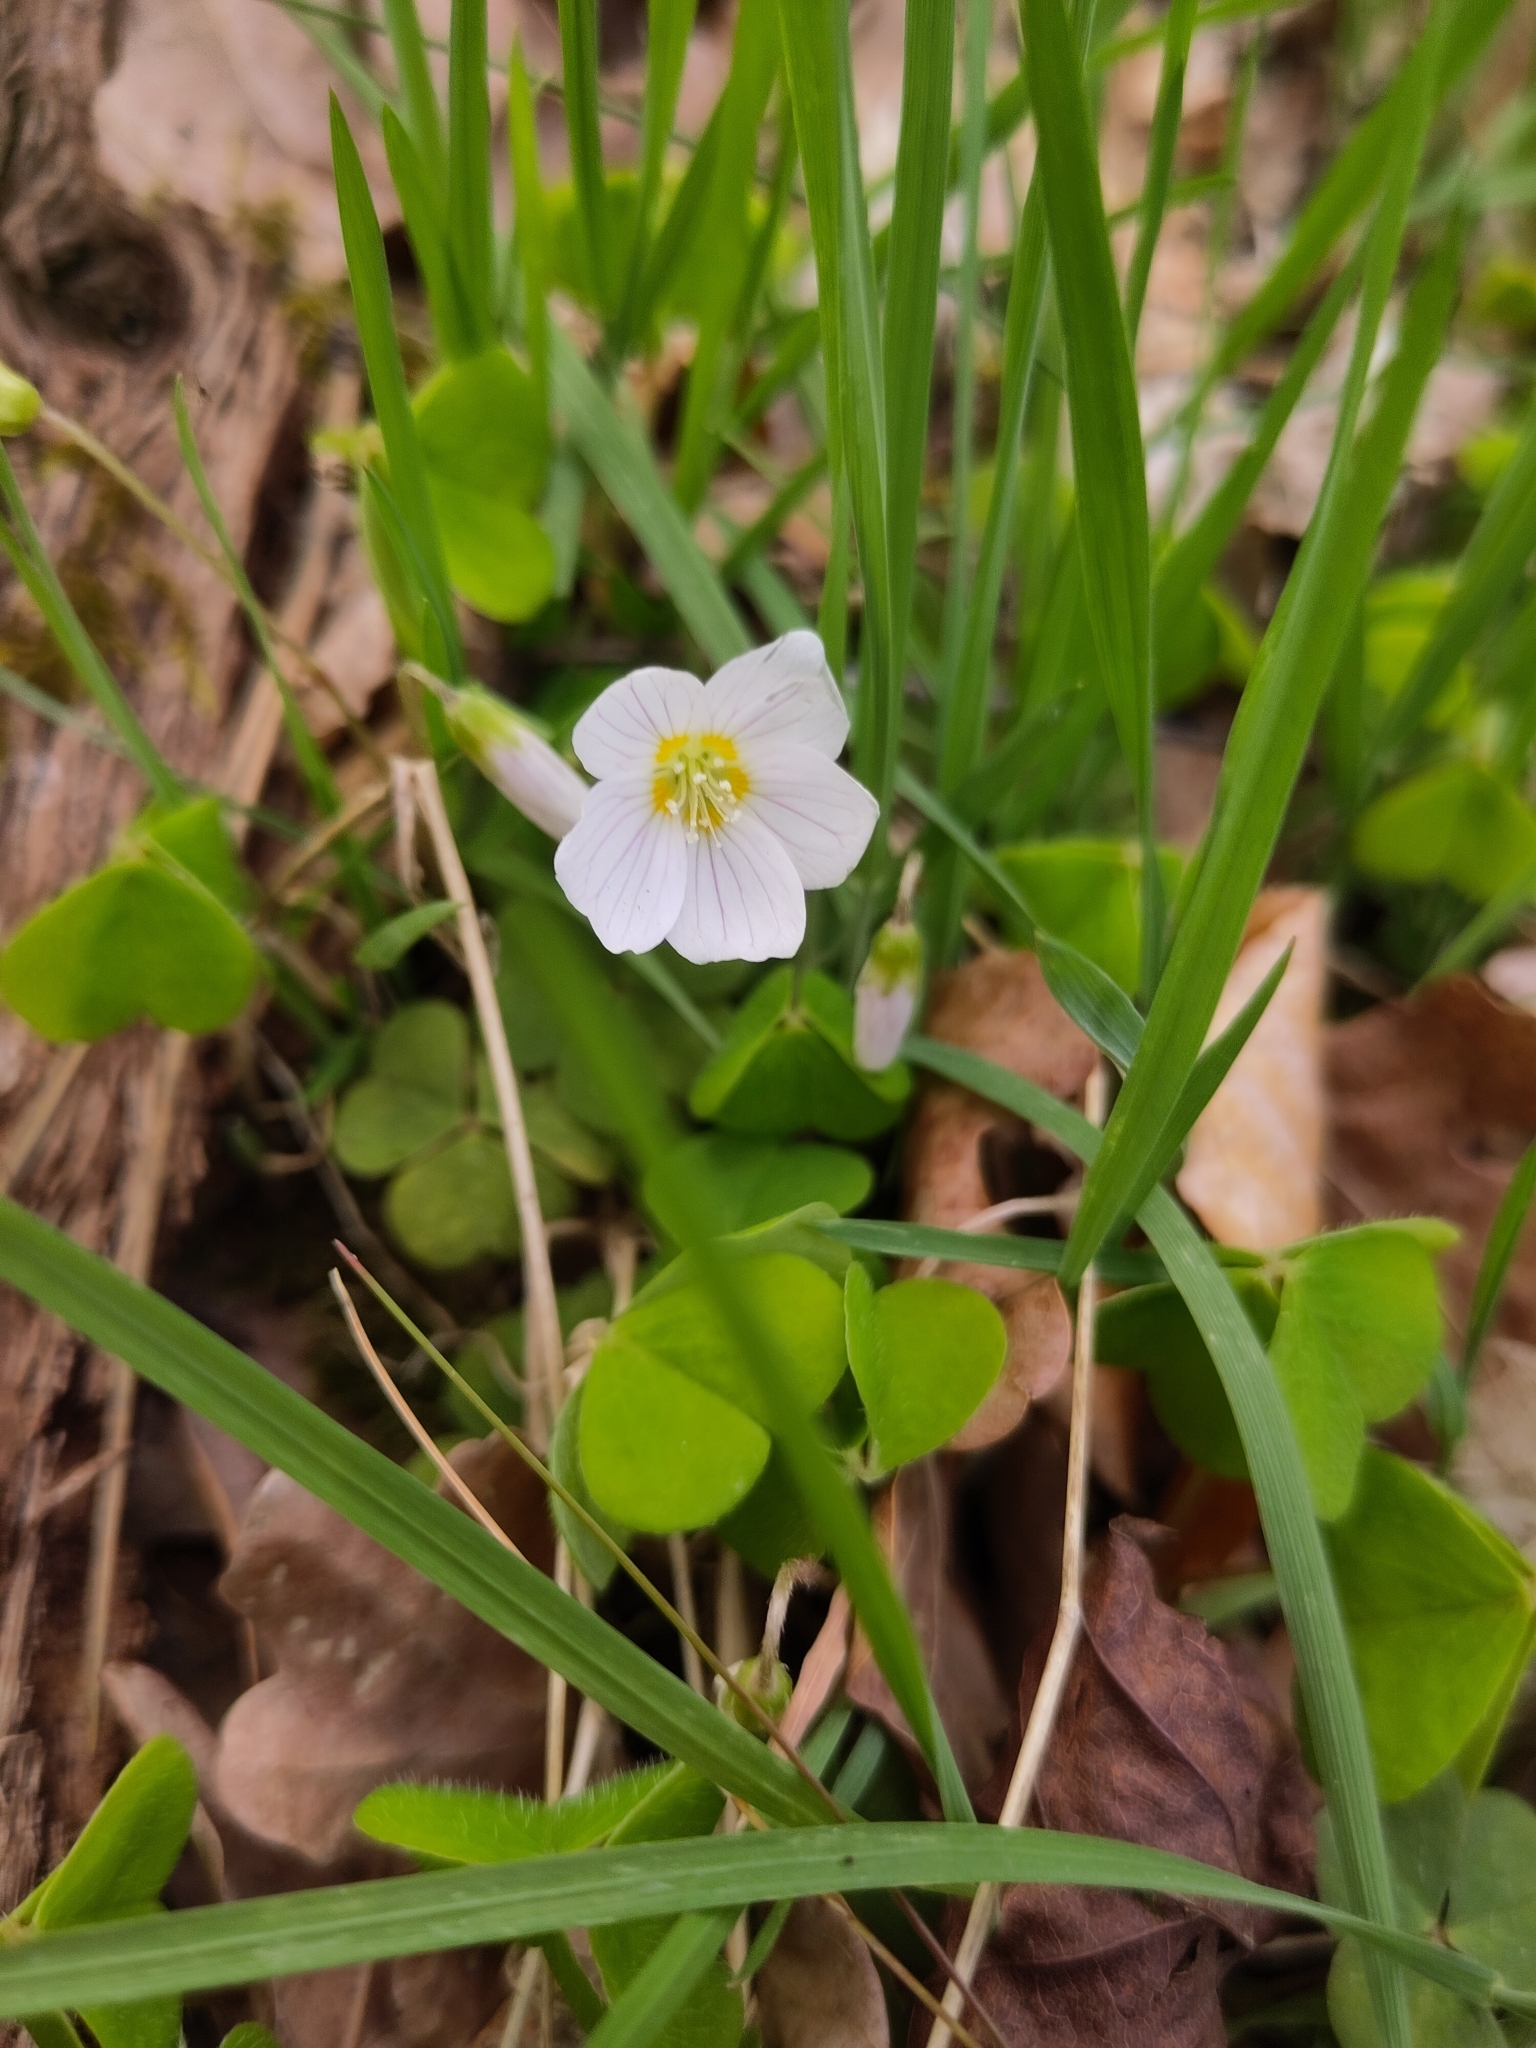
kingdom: Plantae
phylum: Tracheophyta
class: Magnoliopsida
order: Oxalidales
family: Oxalidaceae
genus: Oxalis
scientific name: Oxalis acetosella
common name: Wood-sorrel
